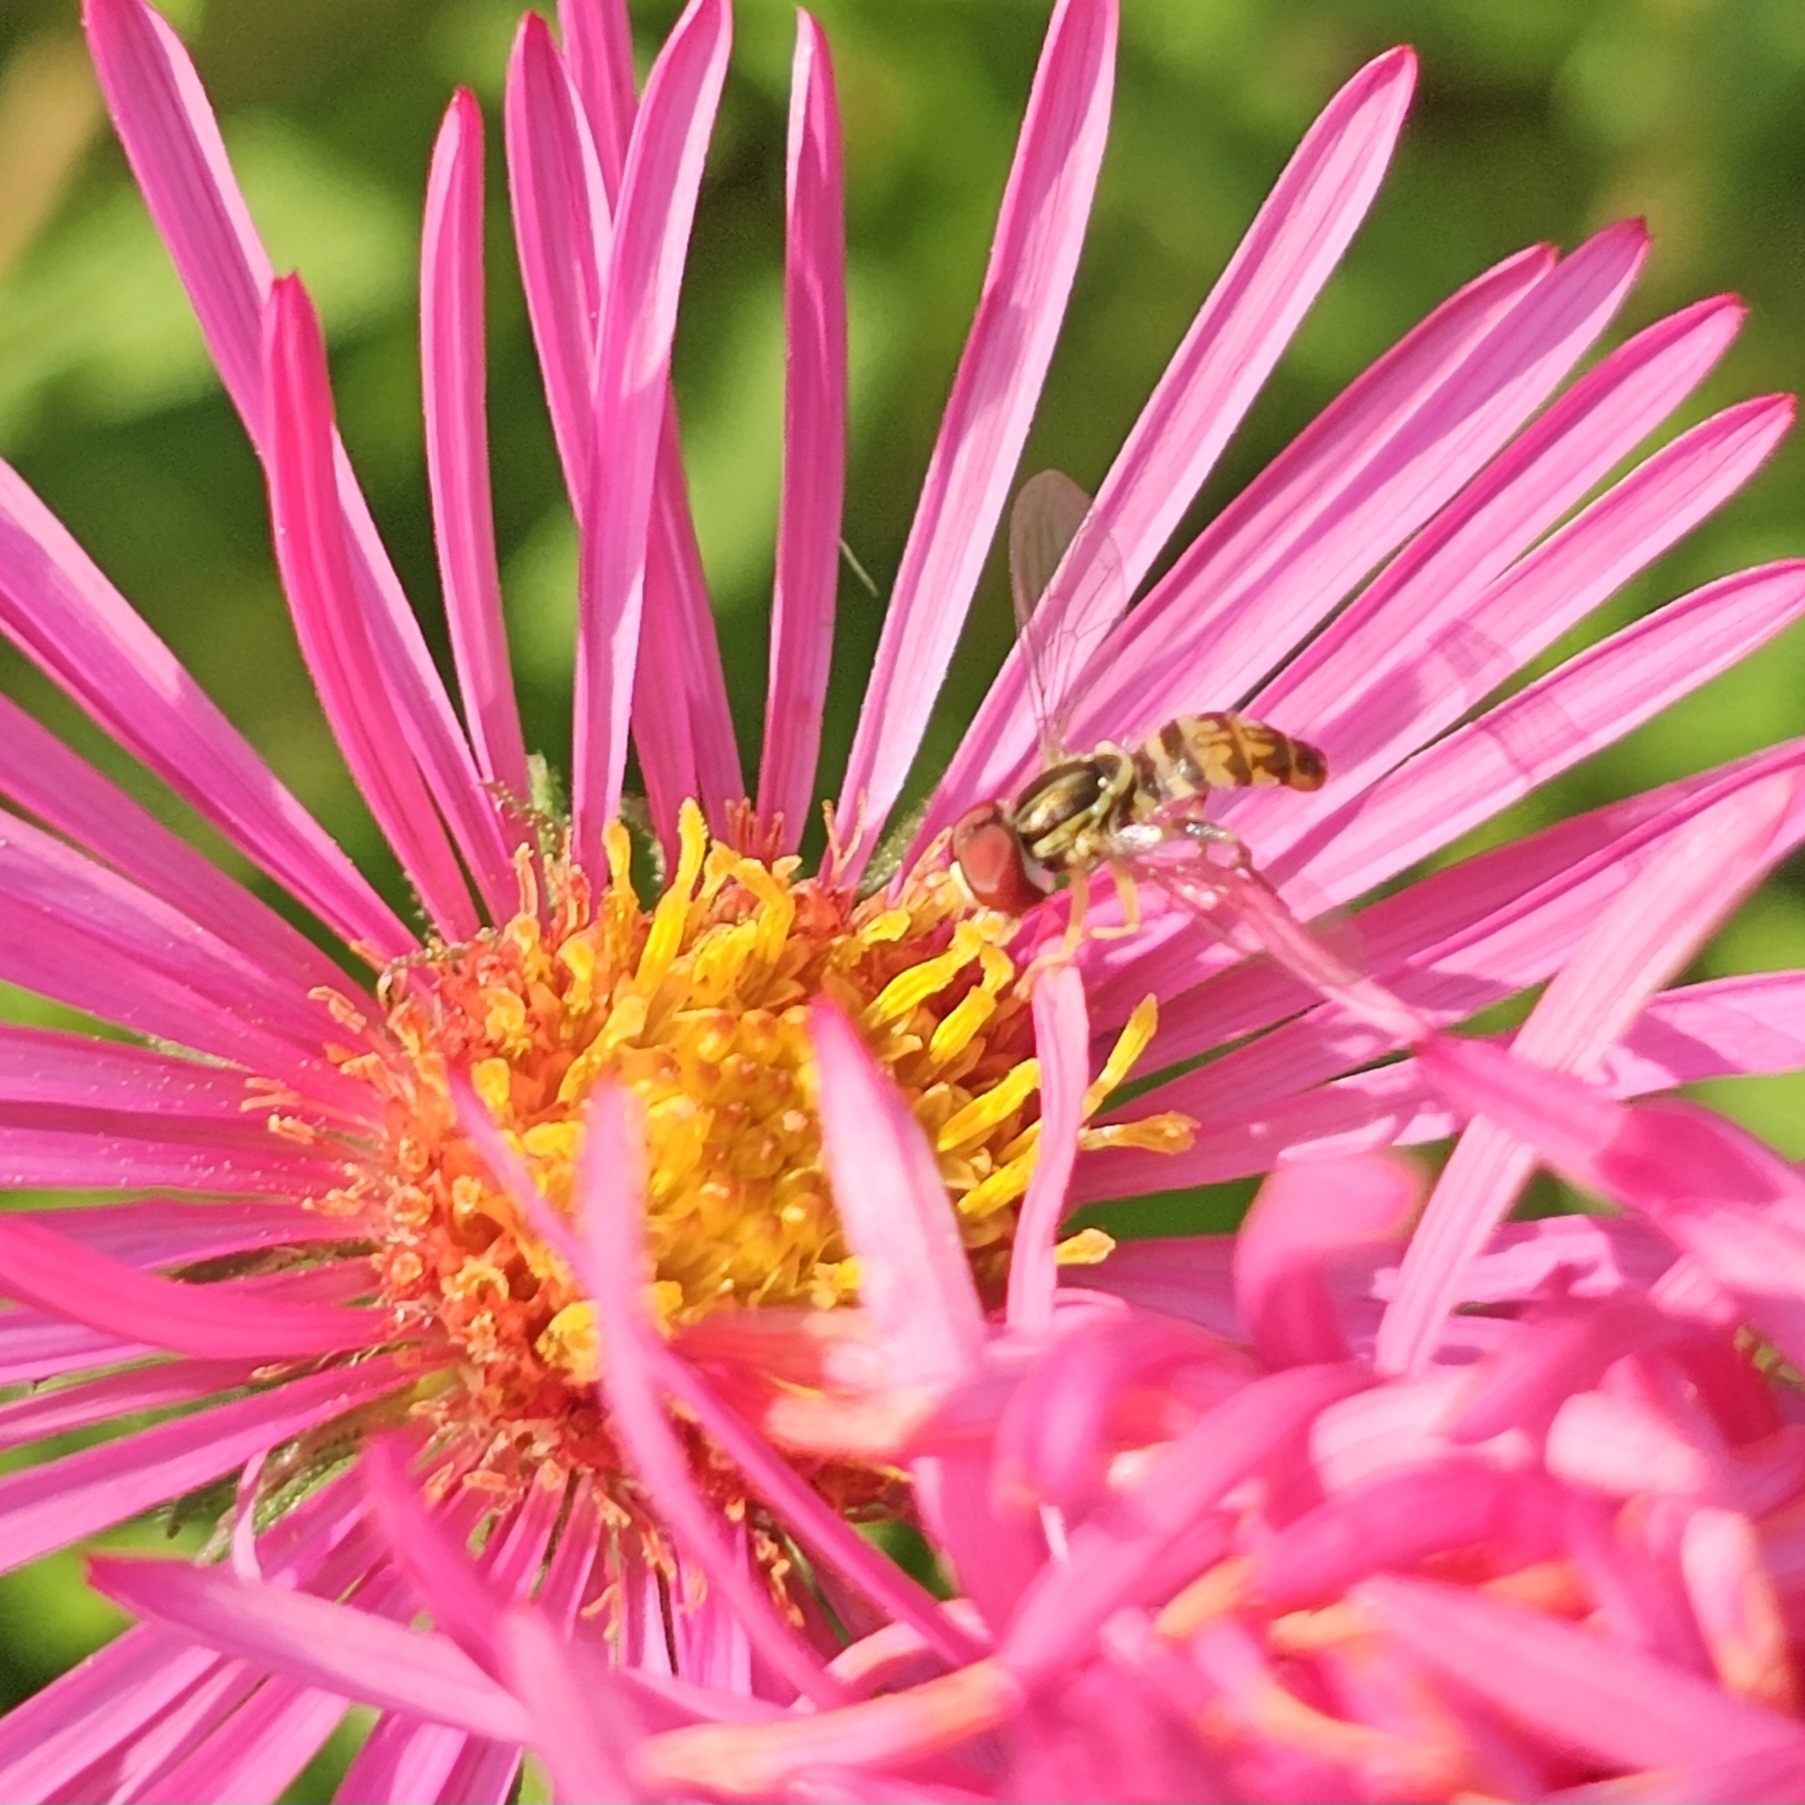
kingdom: Animalia
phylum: Arthropoda
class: Insecta
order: Diptera
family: Syrphidae
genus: Toxomerus
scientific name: Toxomerus geminatus
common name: Eastern calligrapher
